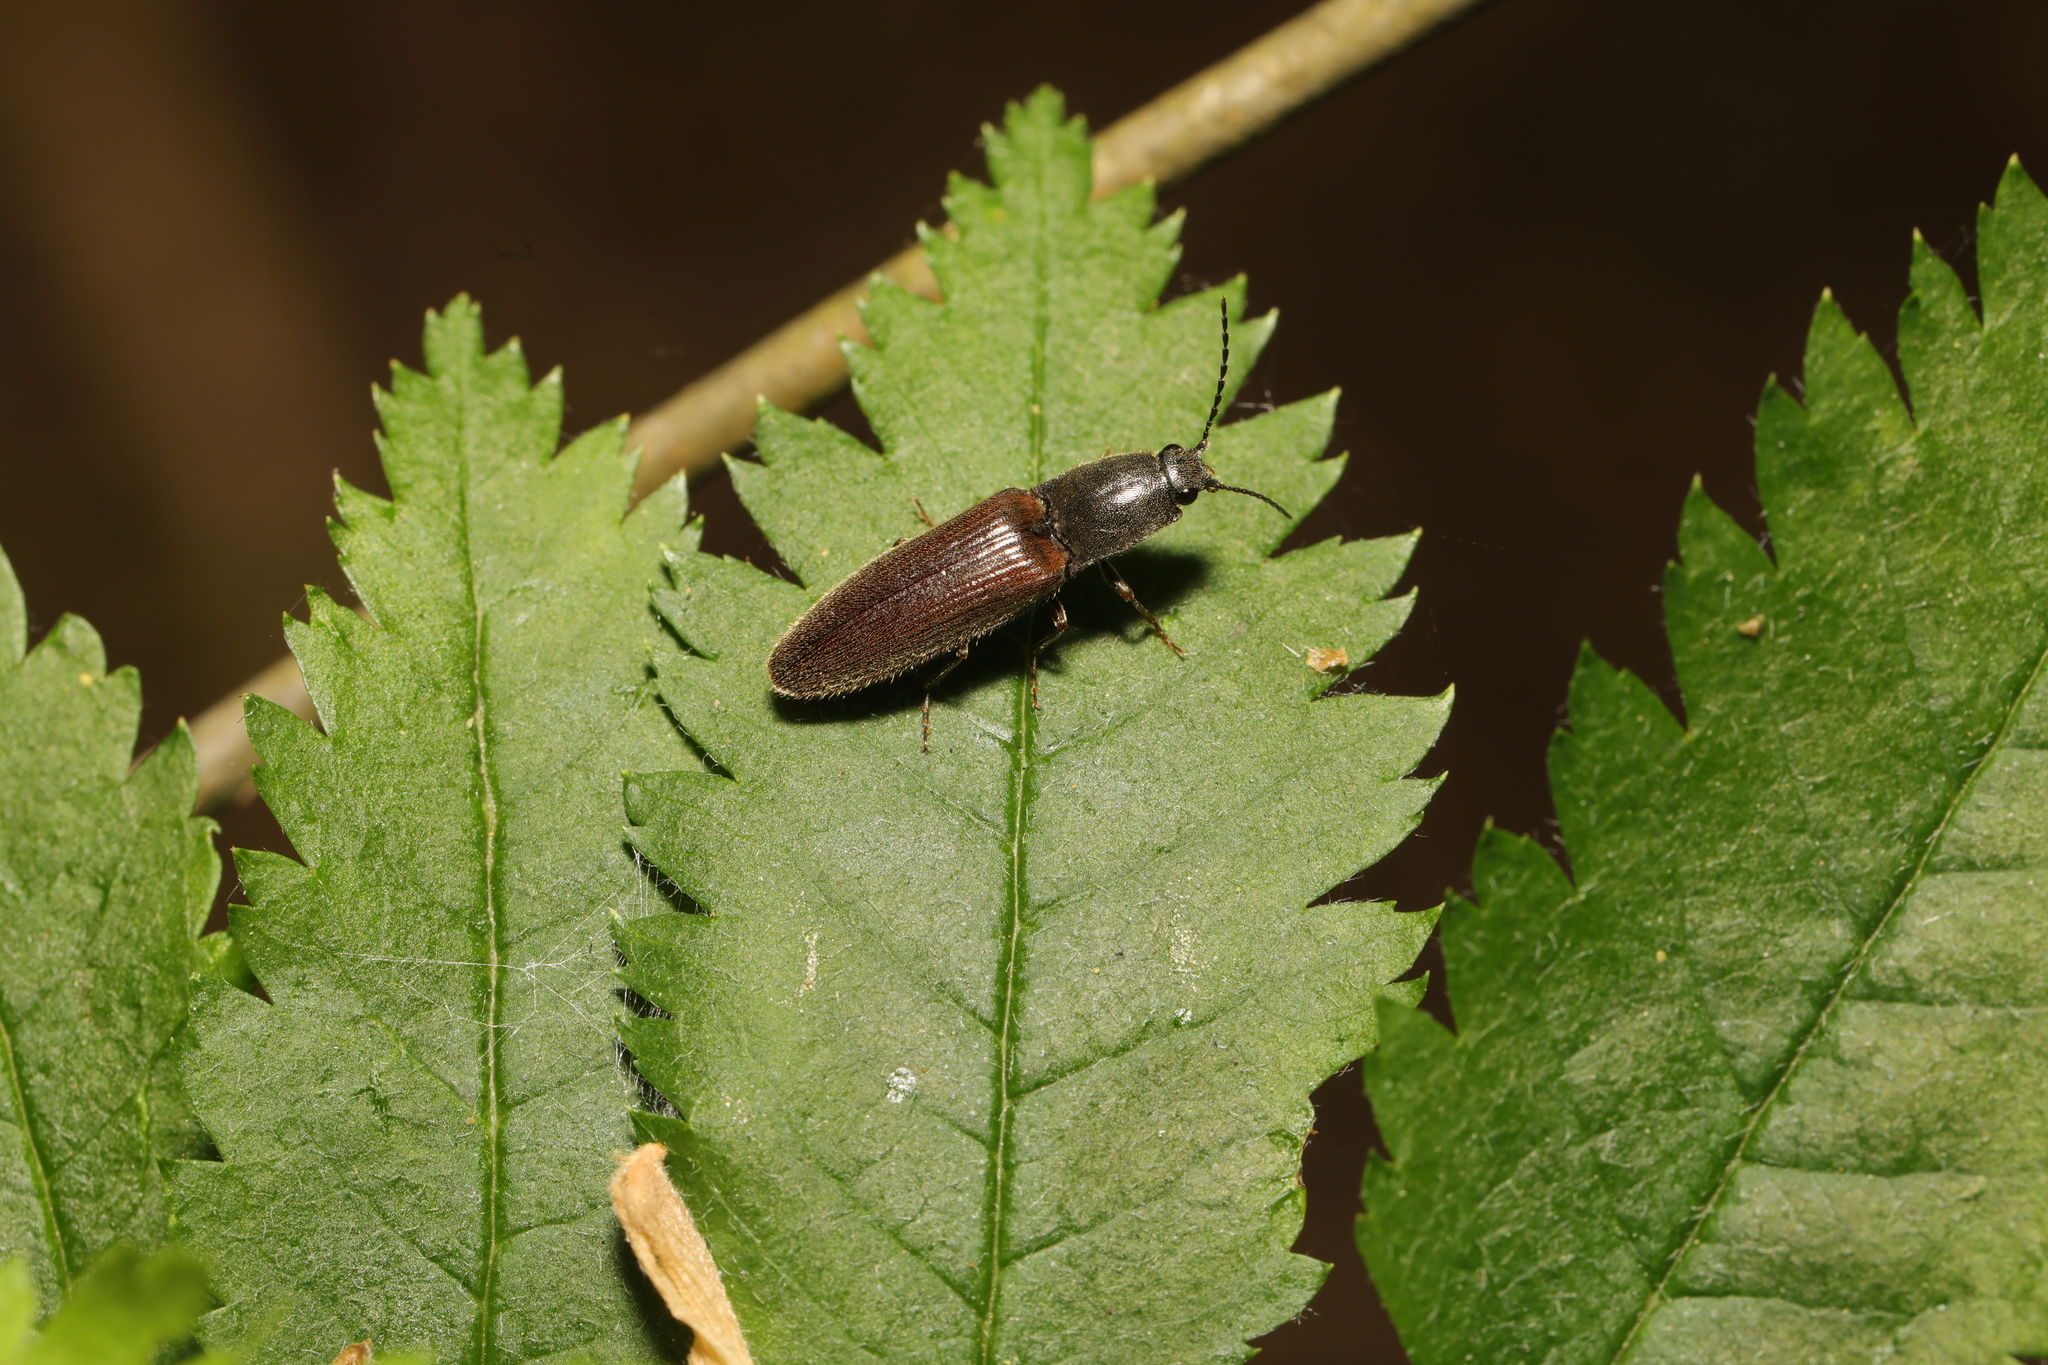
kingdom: Animalia
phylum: Arthropoda
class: Insecta
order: Coleoptera
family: Elateridae
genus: Athous
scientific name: Athous haemorrhoidalis
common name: Red-brown click beetle
